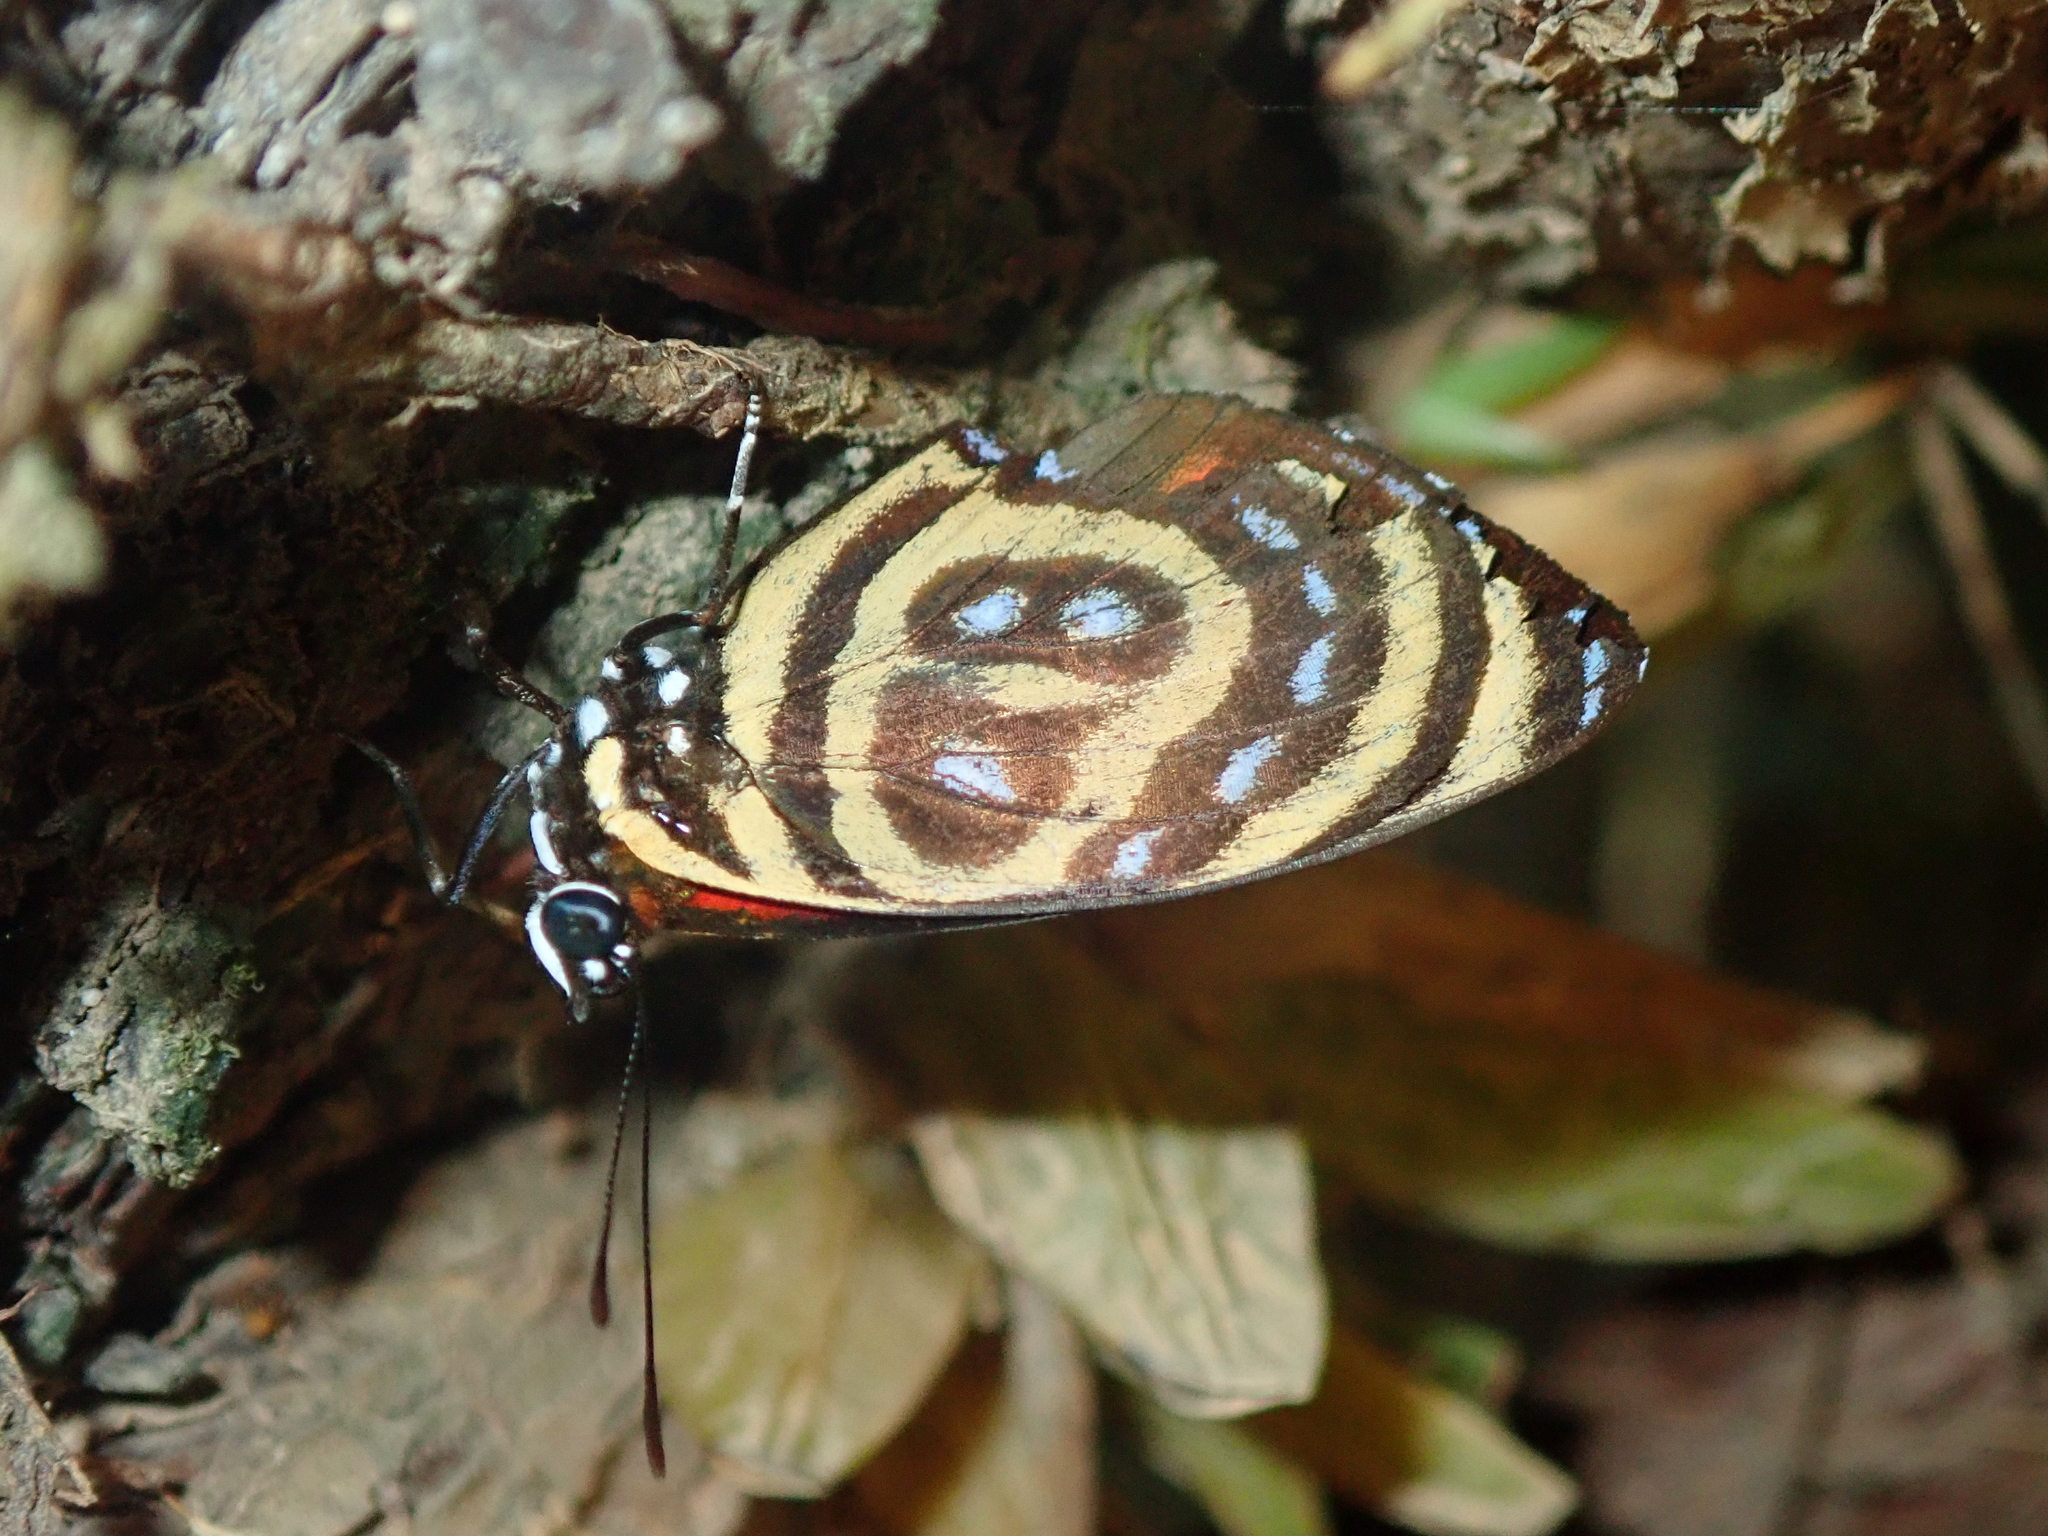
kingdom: Animalia
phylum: Arthropoda
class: Insecta
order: Lepidoptera
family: Nymphalidae
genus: Catagramma
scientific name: Catagramma astarte
